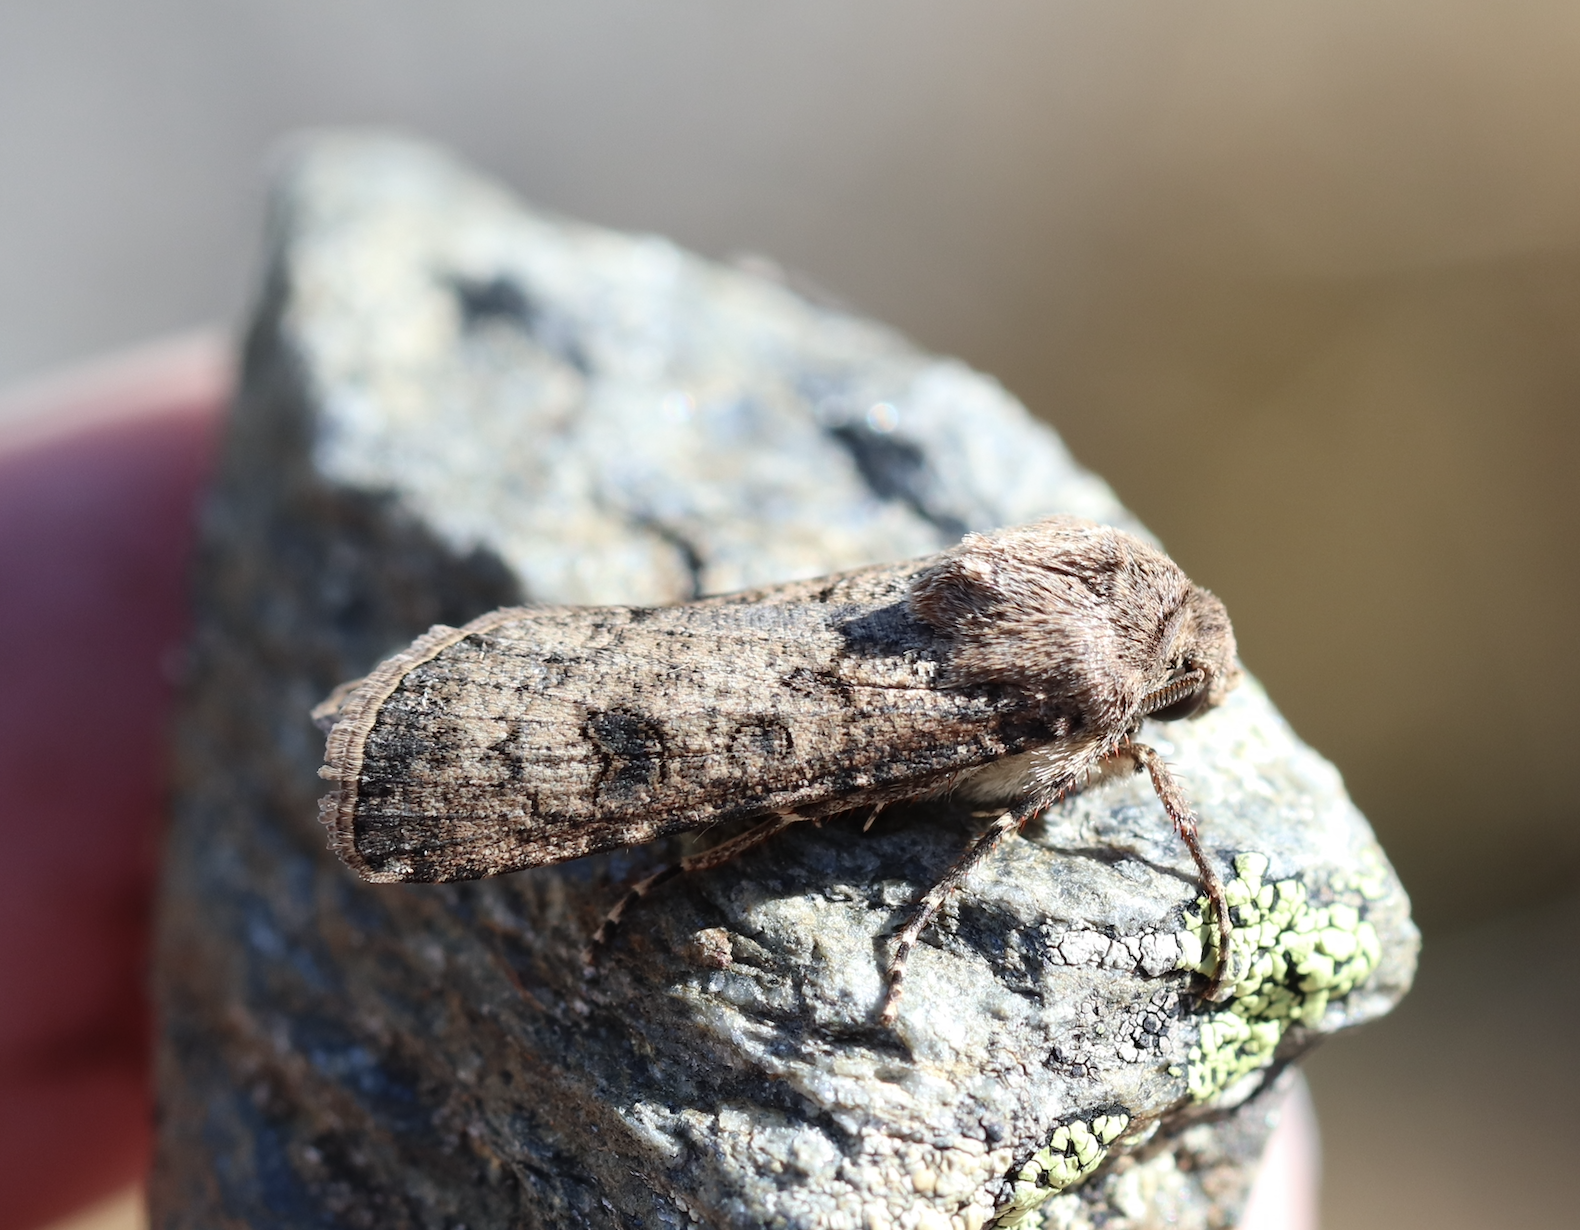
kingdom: Animalia
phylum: Arthropoda
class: Insecta
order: Lepidoptera
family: Noctuidae
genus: Agrotis
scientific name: Agrotis segetum
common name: Turnip moth
